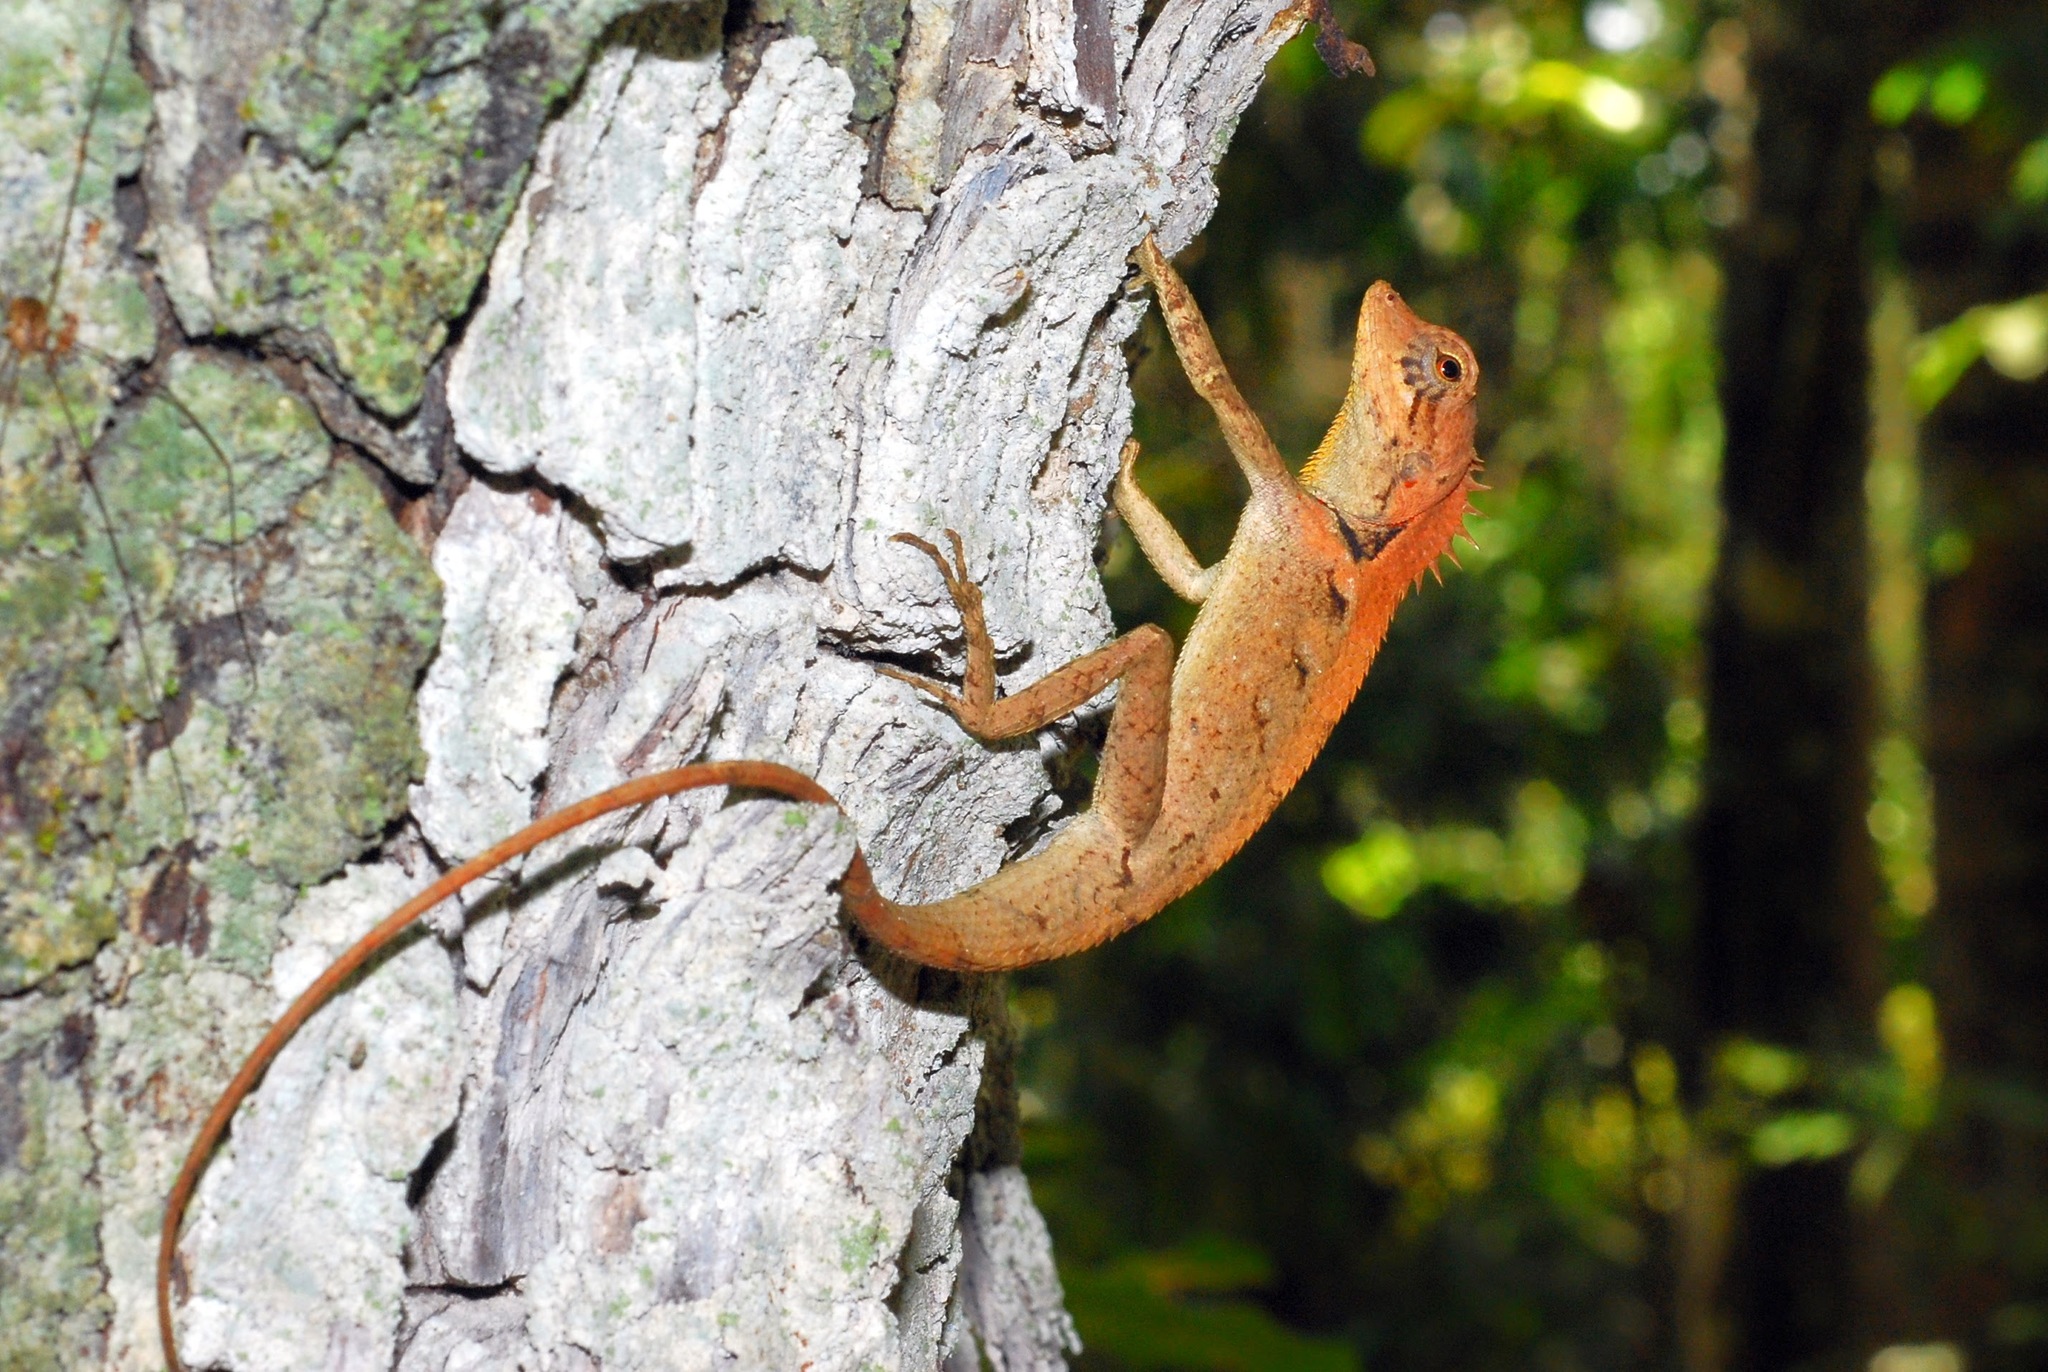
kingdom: Animalia
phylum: Chordata
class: Squamata
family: Agamidae
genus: Monilesaurus
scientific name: Monilesaurus rouxii
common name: Roux's forest lizard
